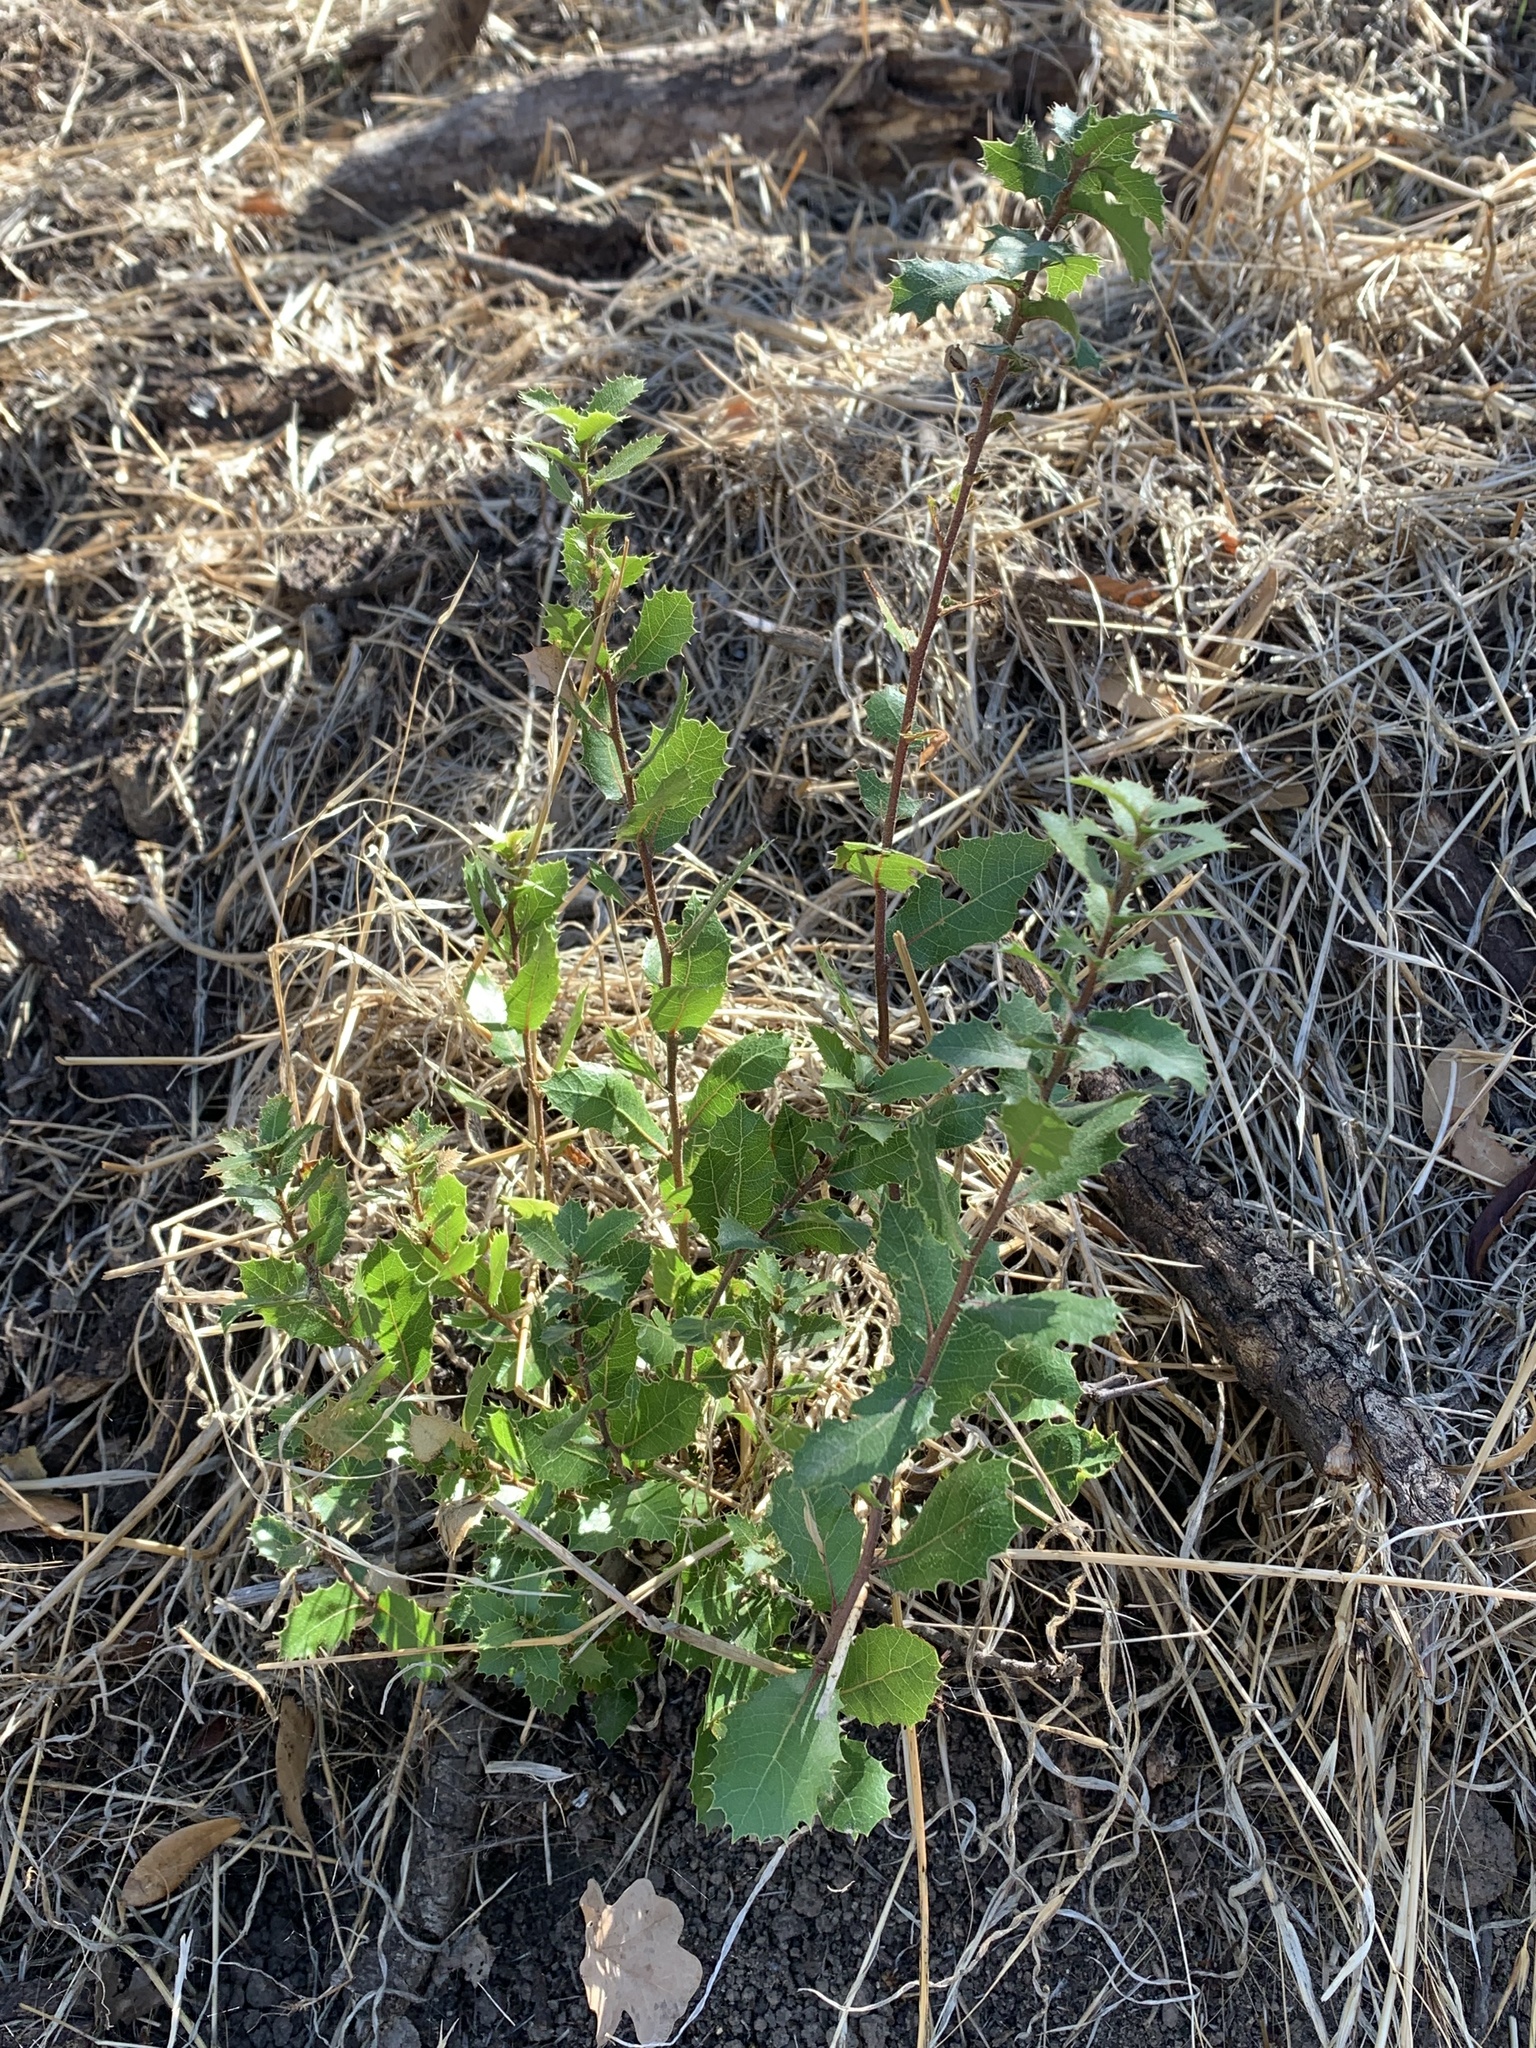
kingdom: Plantae
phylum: Tracheophyta
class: Magnoliopsida
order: Fagales
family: Fagaceae
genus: Quercus
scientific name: Quercus wislizeni
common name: Interior live oak
